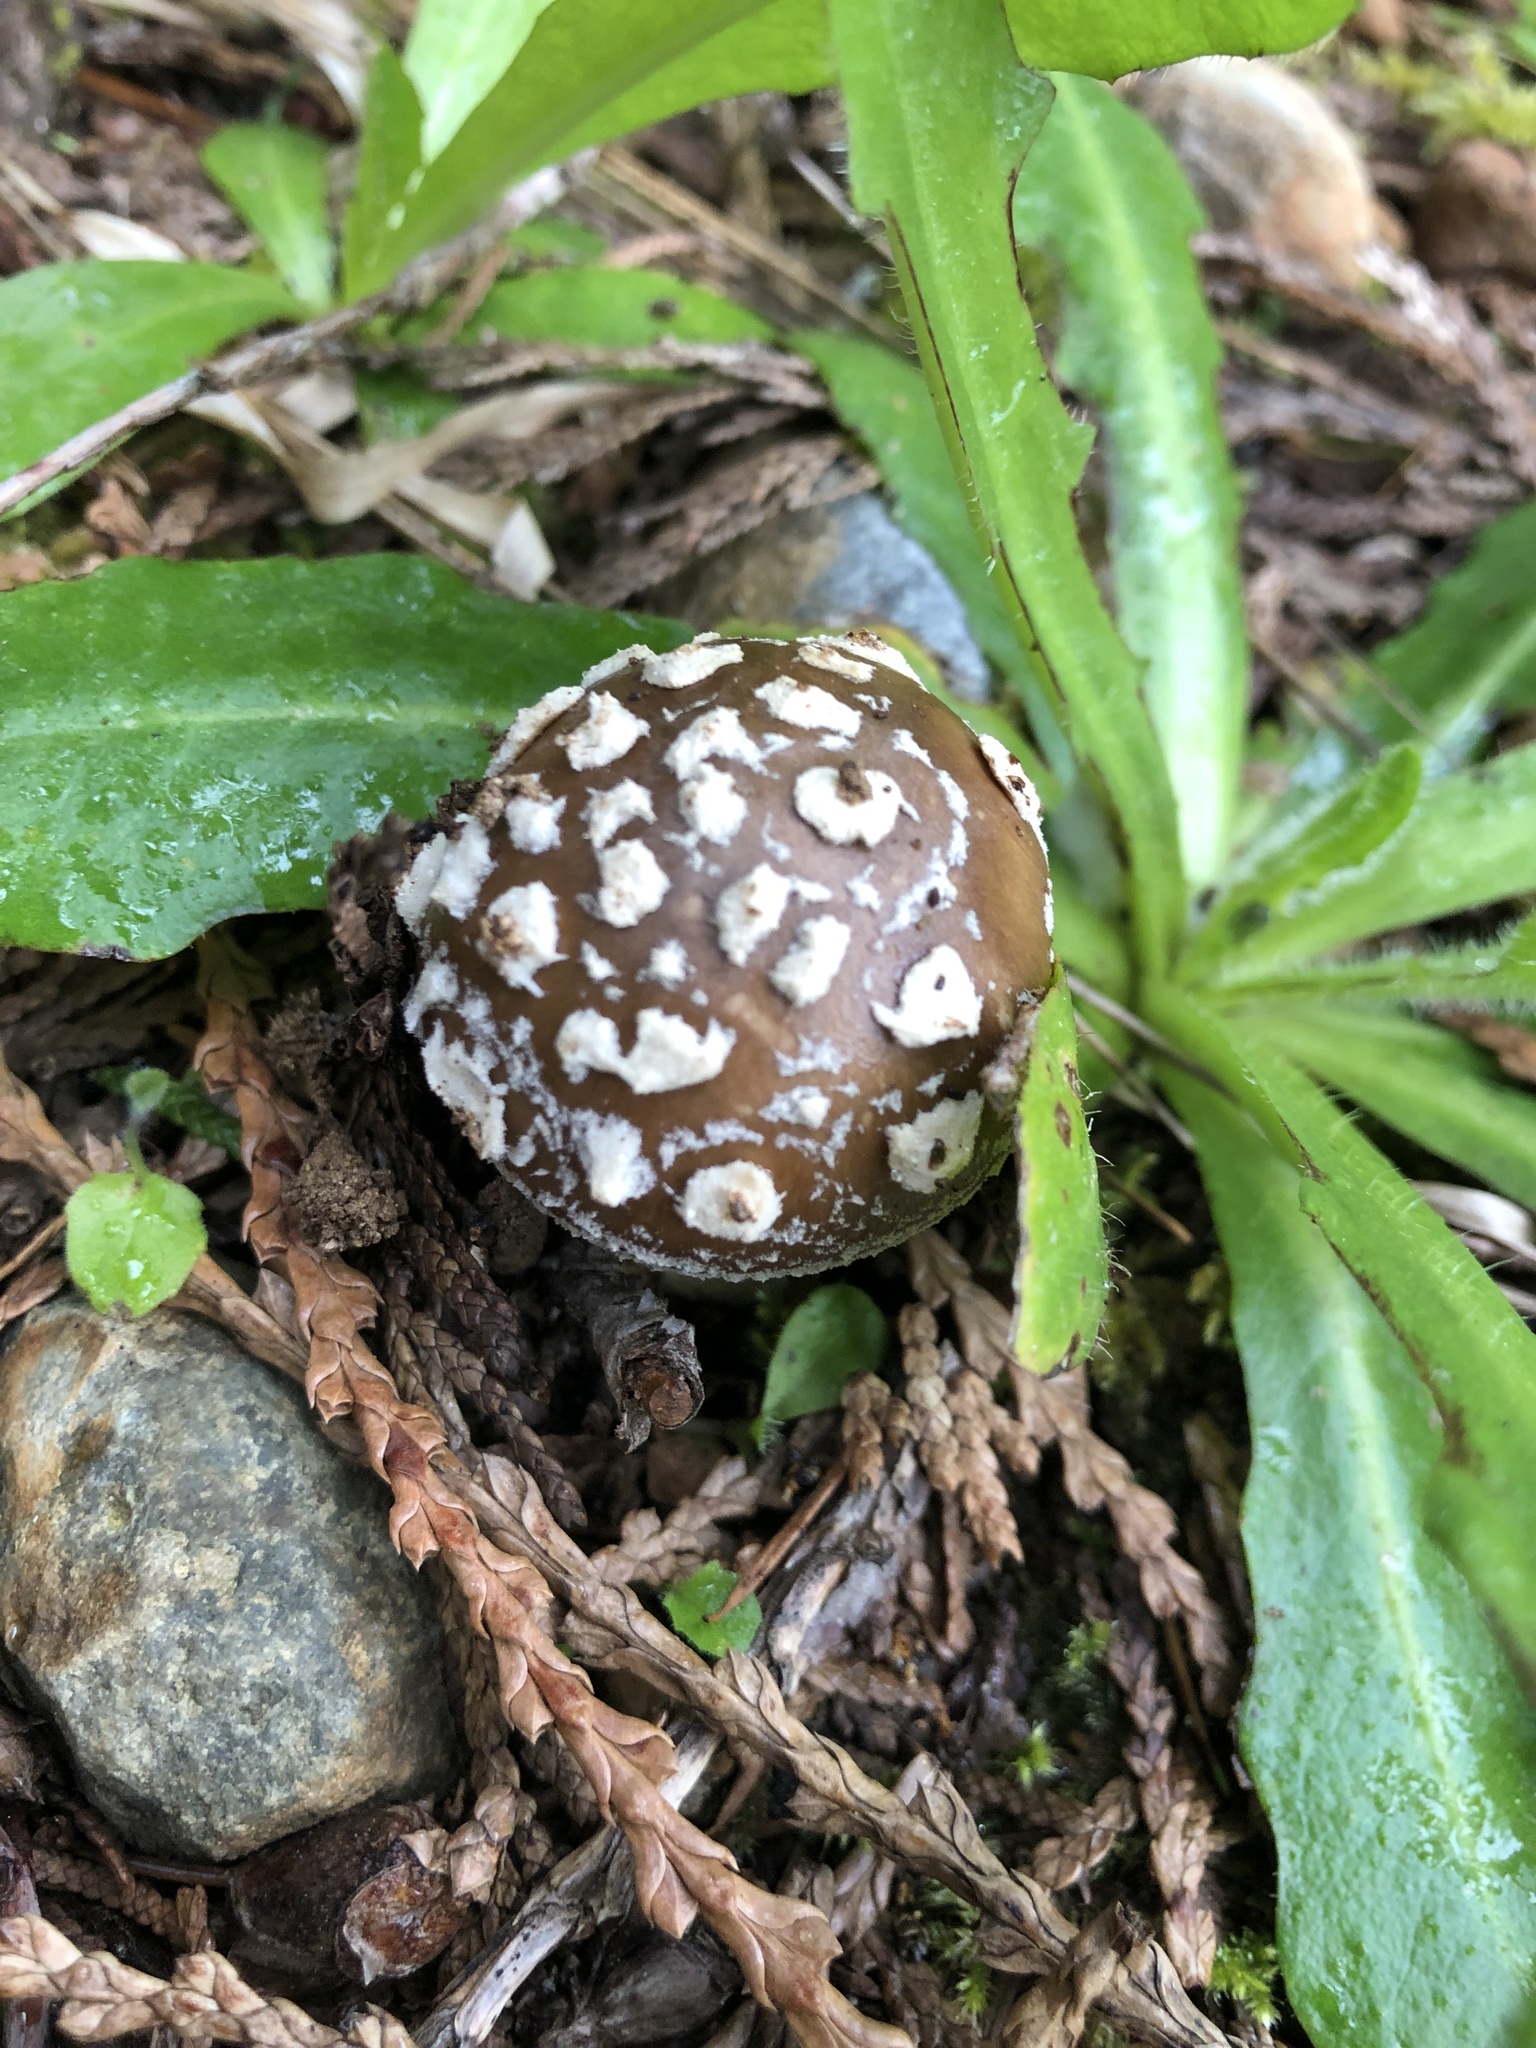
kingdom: Fungi
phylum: Basidiomycota
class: Agaricomycetes
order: Agaricales
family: Amanitaceae
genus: Amanita
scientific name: Amanita pantherinoides
